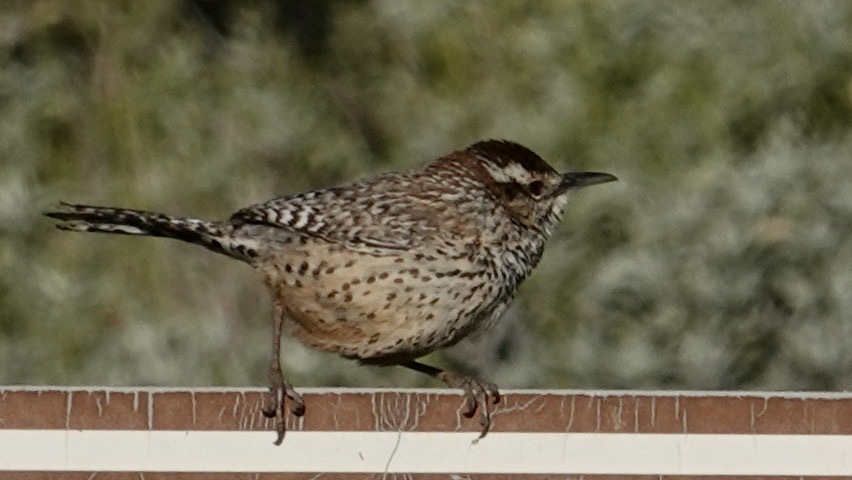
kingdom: Animalia
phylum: Chordata
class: Aves
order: Passeriformes
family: Troglodytidae
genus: Campylorhynchus
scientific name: Campylorhynchus brunneicapillus
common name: Cactus wren
